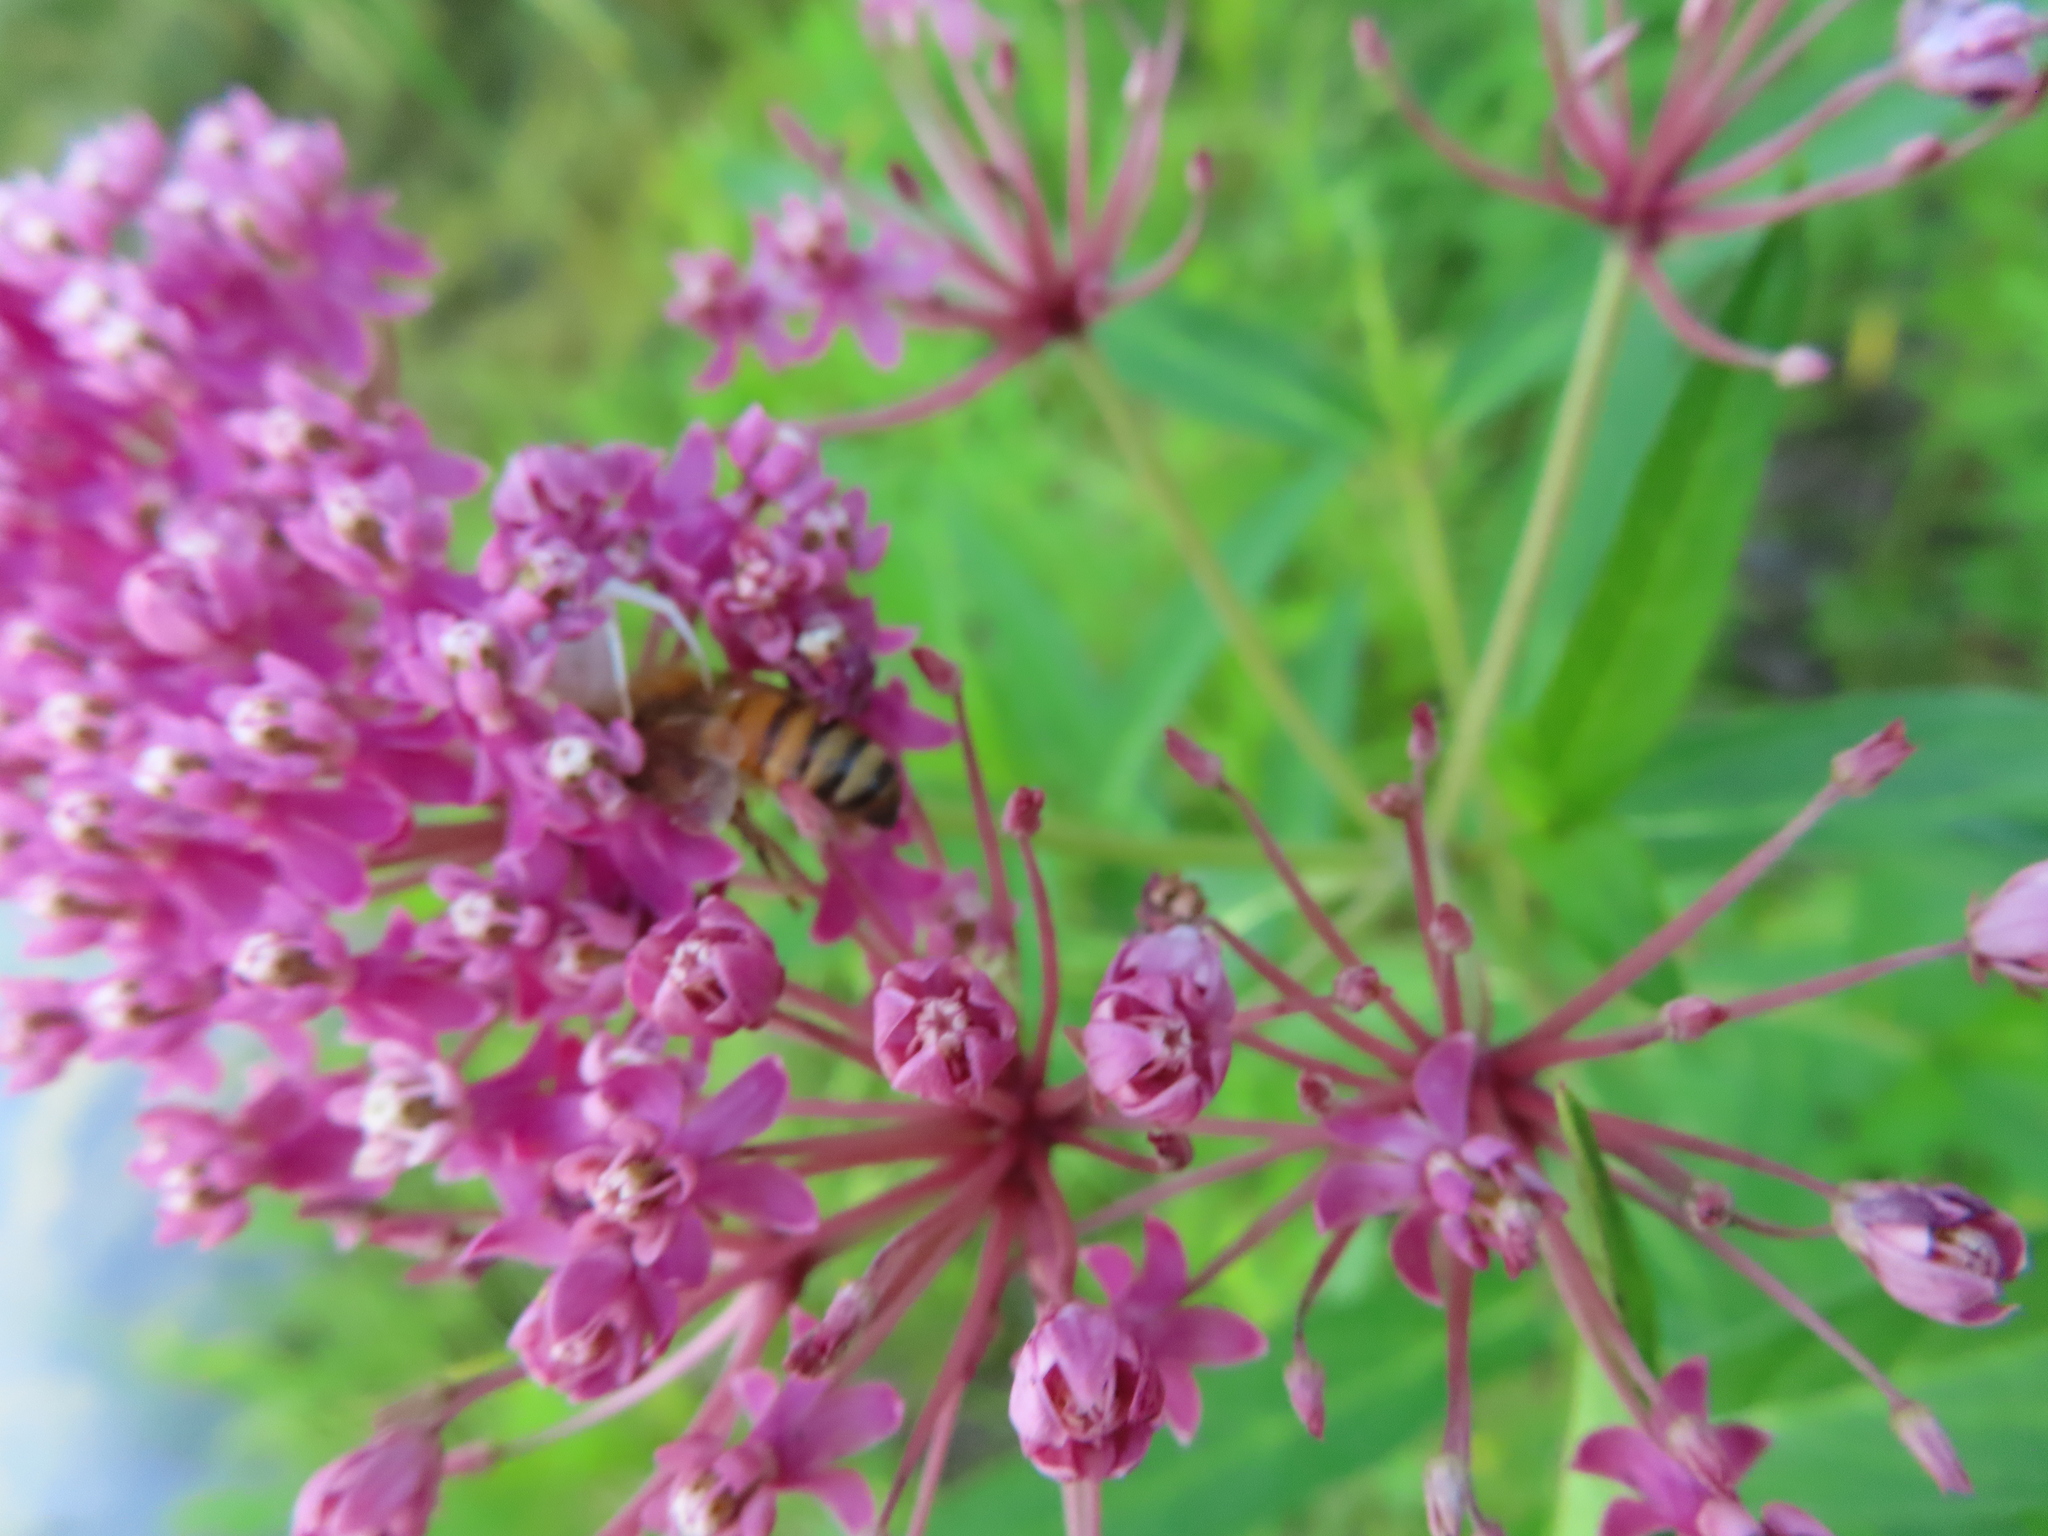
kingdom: Animalia
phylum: Arthropoda
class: Insecta
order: Hymenoptera
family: Apidae
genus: Apis
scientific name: Apis mellifera
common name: Honey bee
